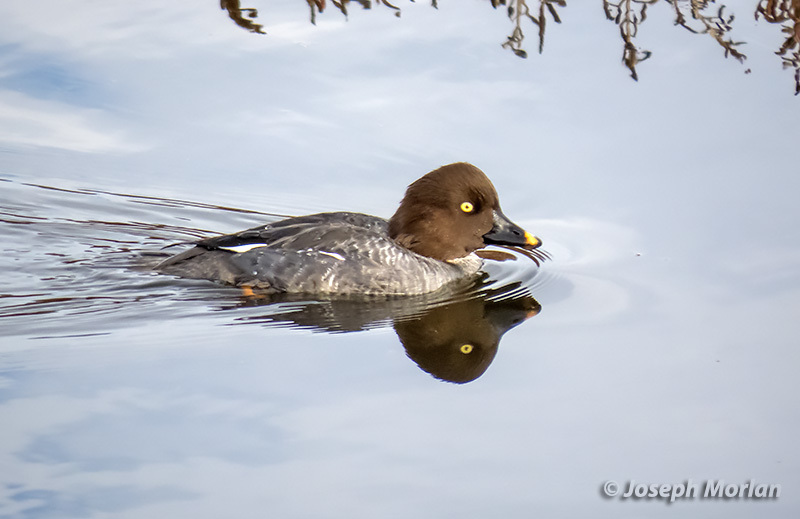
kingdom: Animalia
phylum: Chordata
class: Aves
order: Anseriformes
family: Anatidae
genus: Bucephala
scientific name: Bucephala clangula
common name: Common goldeneye
